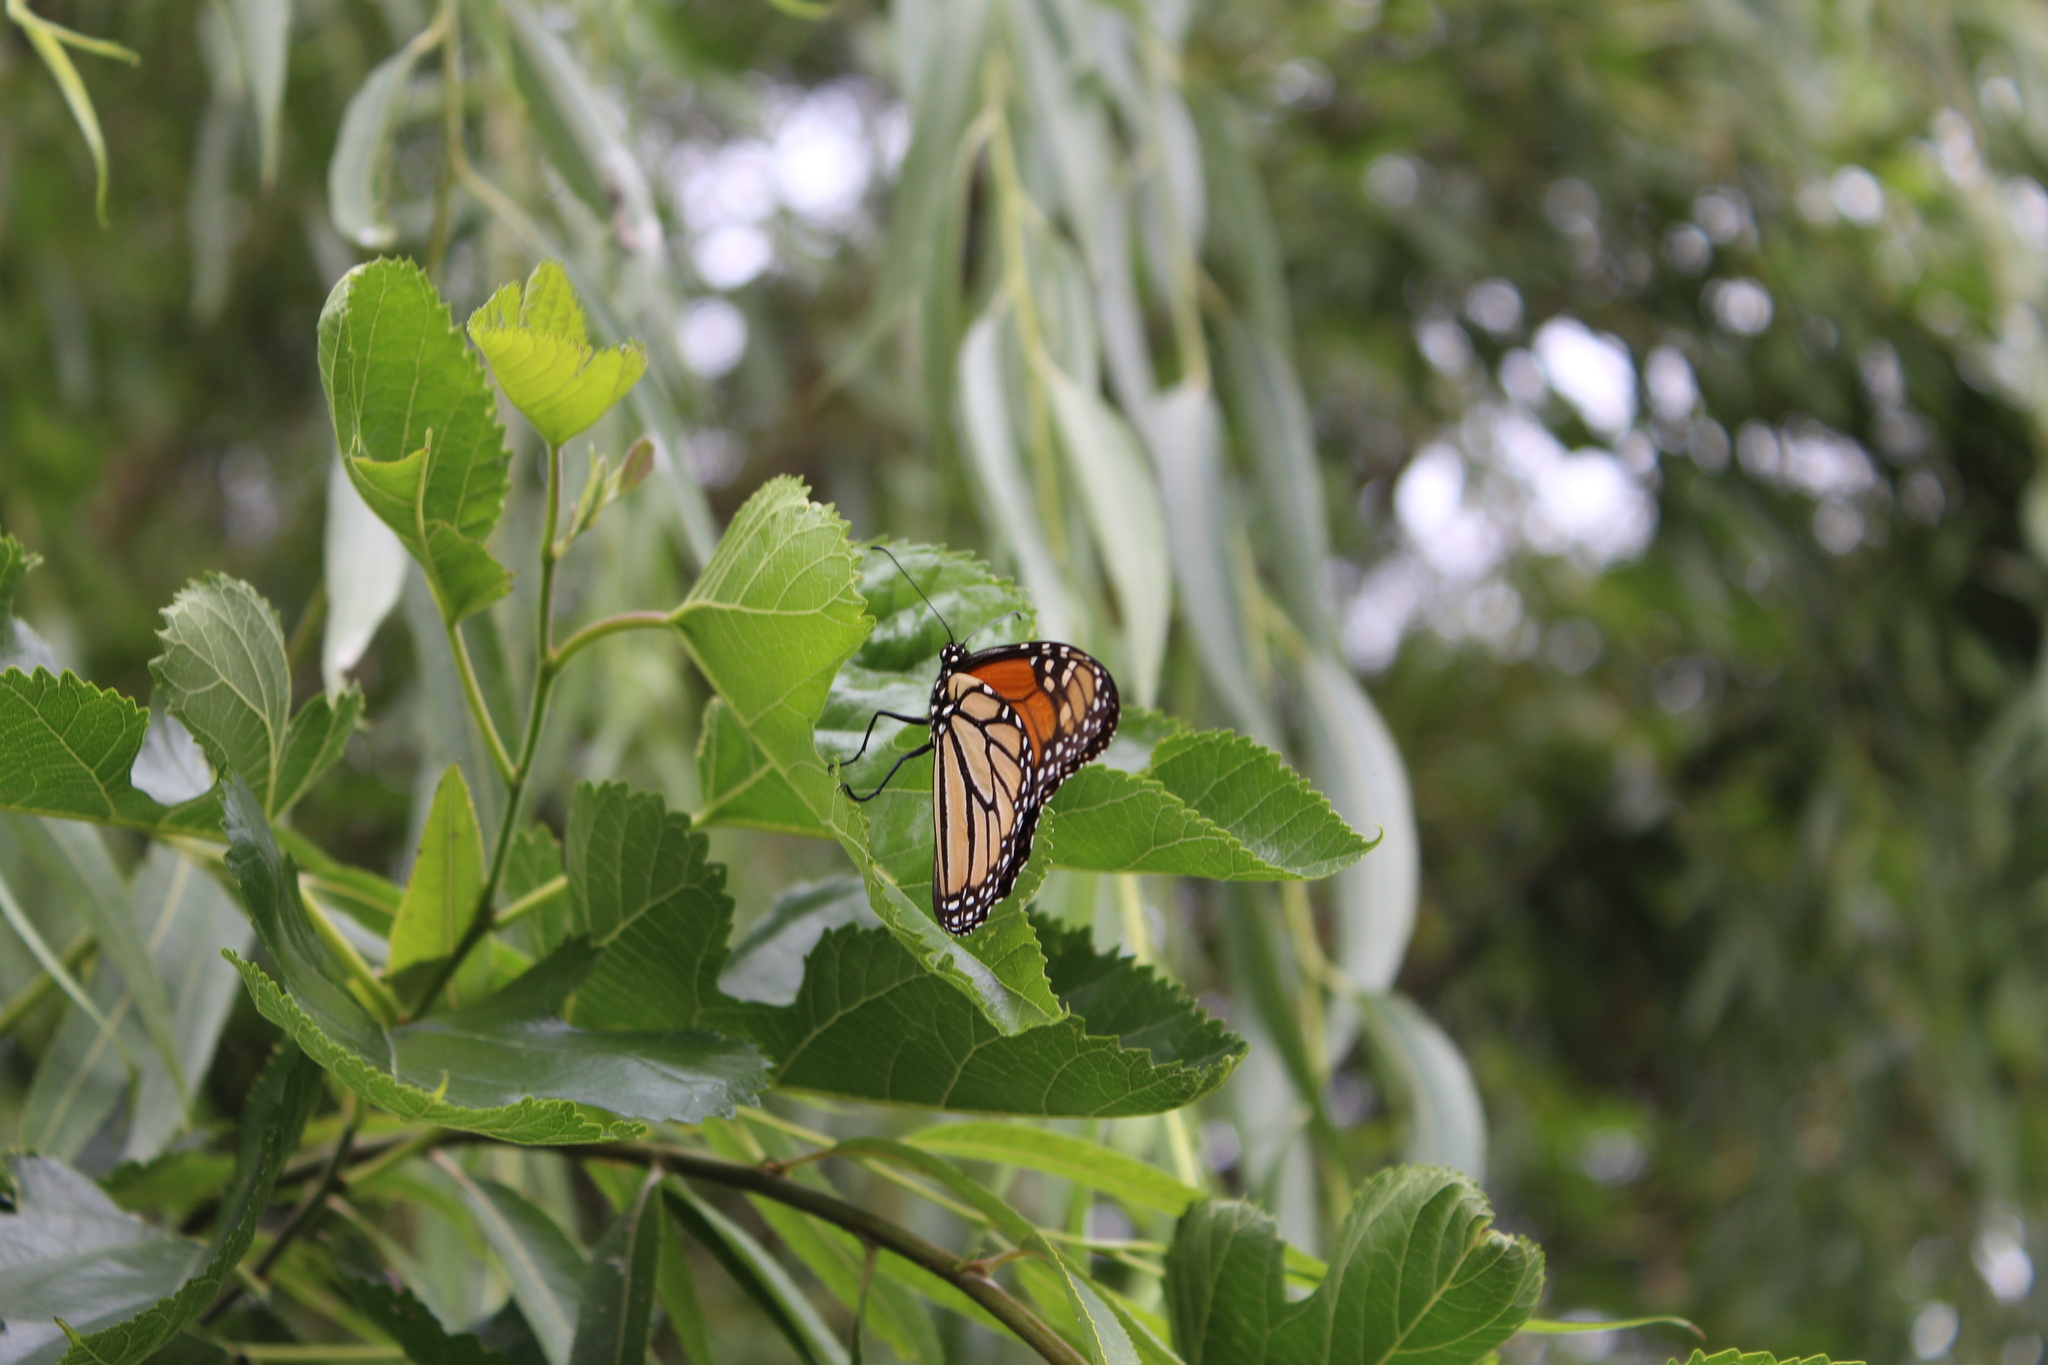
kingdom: Animalia
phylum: Arthropoda
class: Insecta
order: Lepidoptera
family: Nymphalidae
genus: Danaus
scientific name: Danaus plexippus
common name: Monarch
